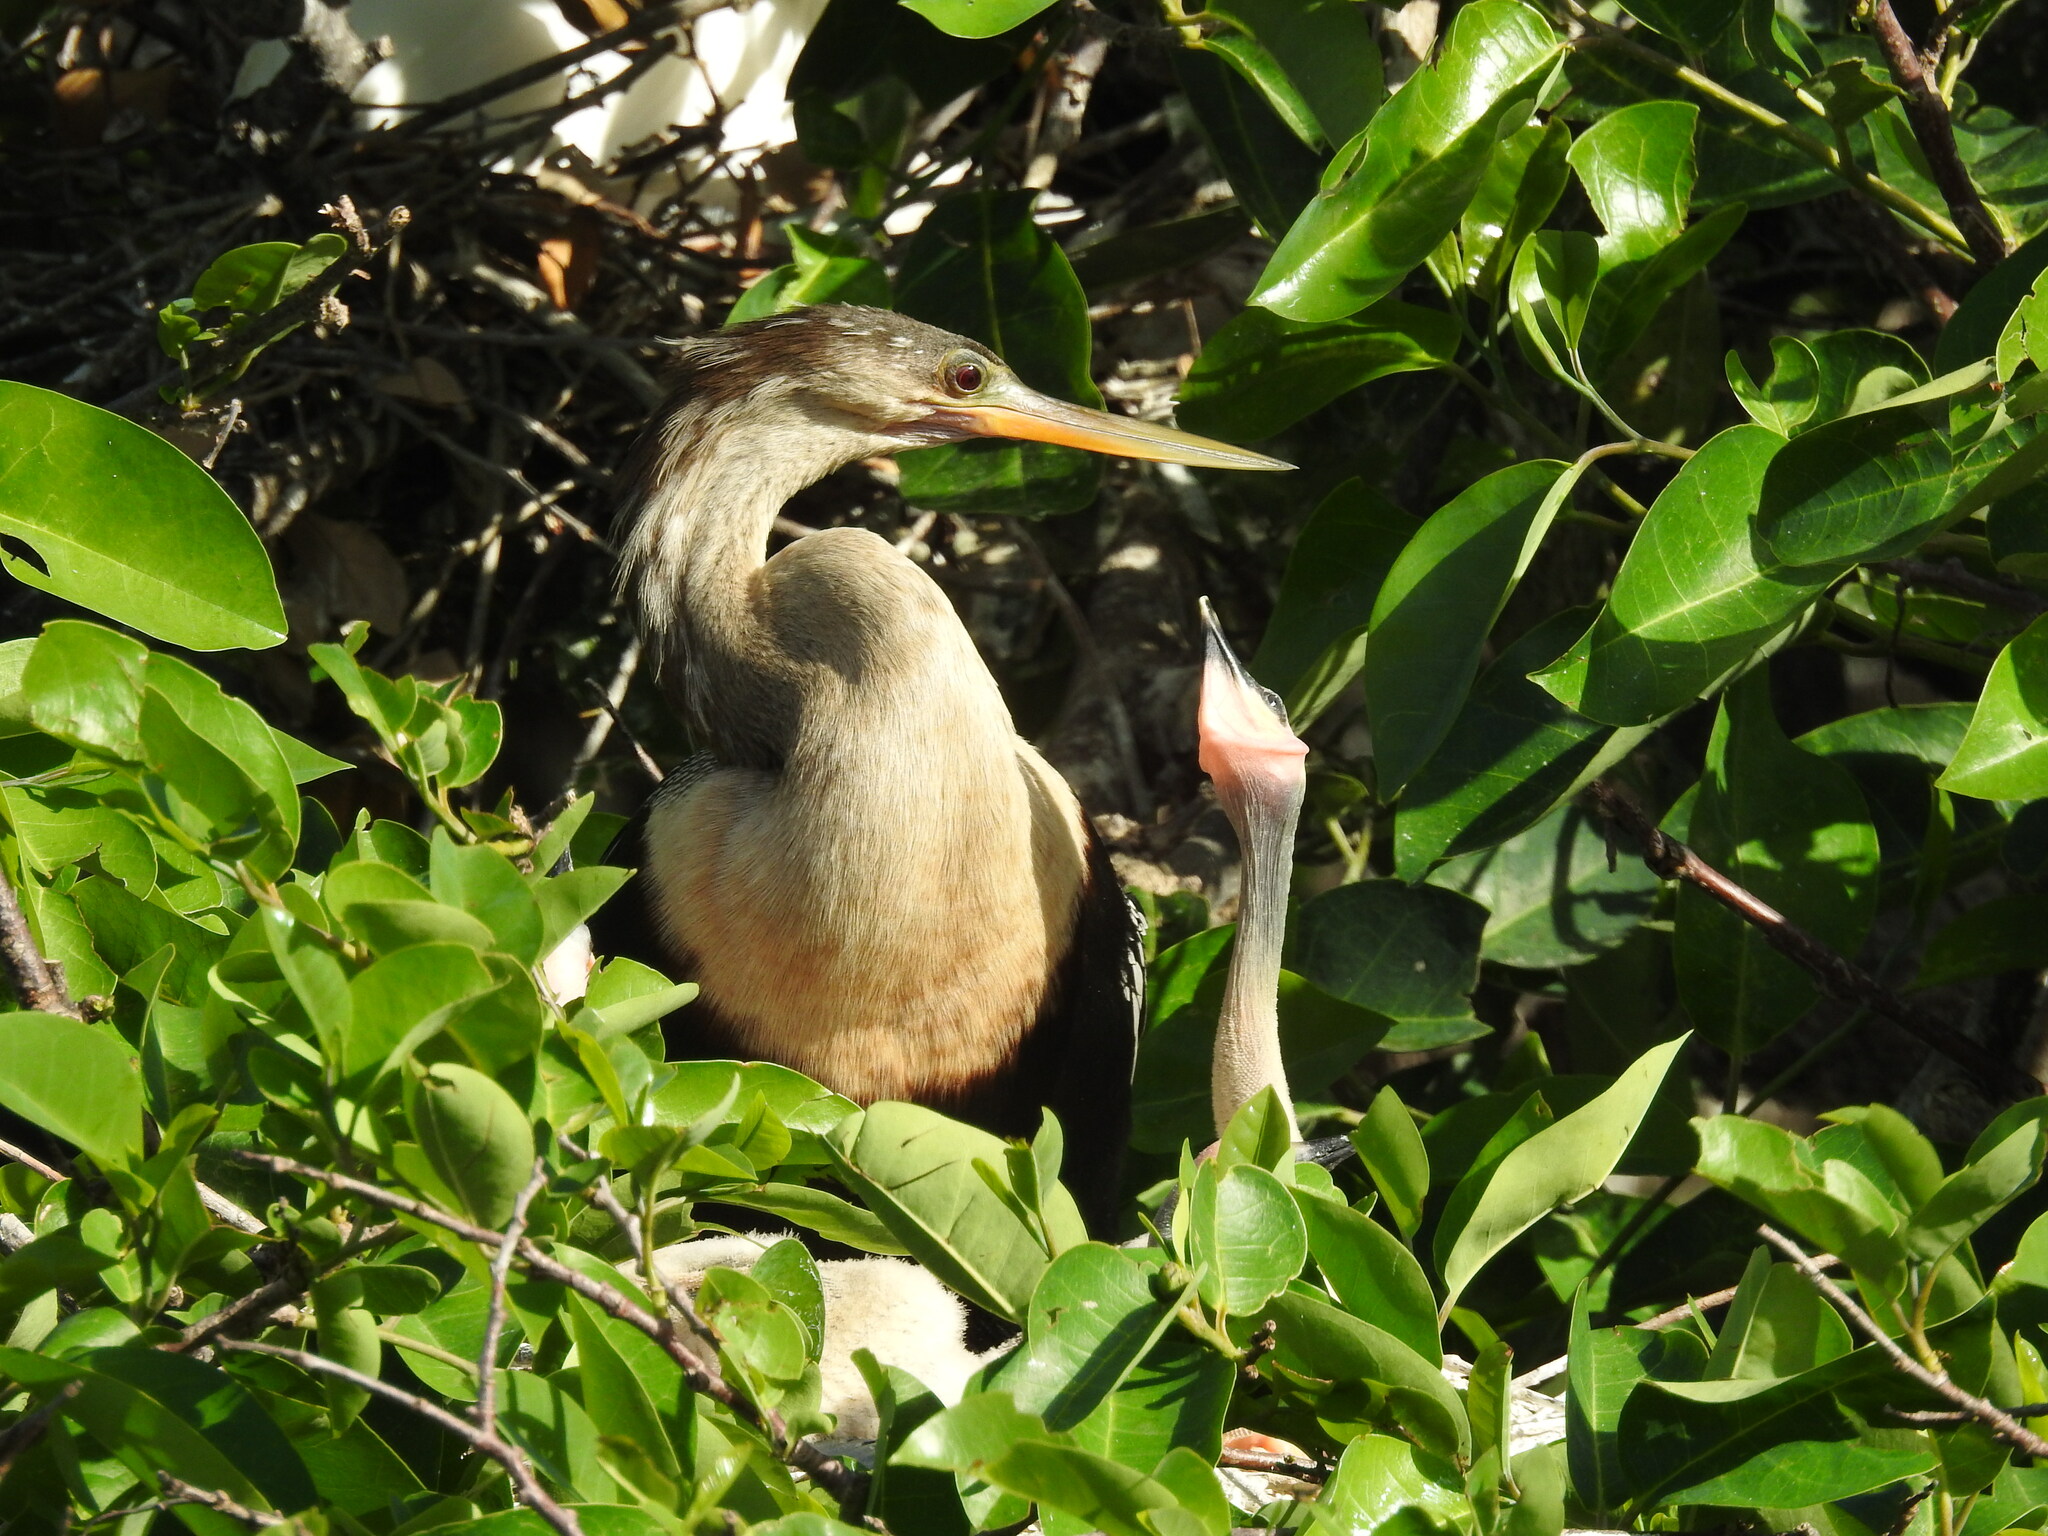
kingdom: Animalia
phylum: Chordata
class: Aves
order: Suliformes
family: Anhingidae
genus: Anhinga
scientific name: Anhinga anhinga
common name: Anhinga
